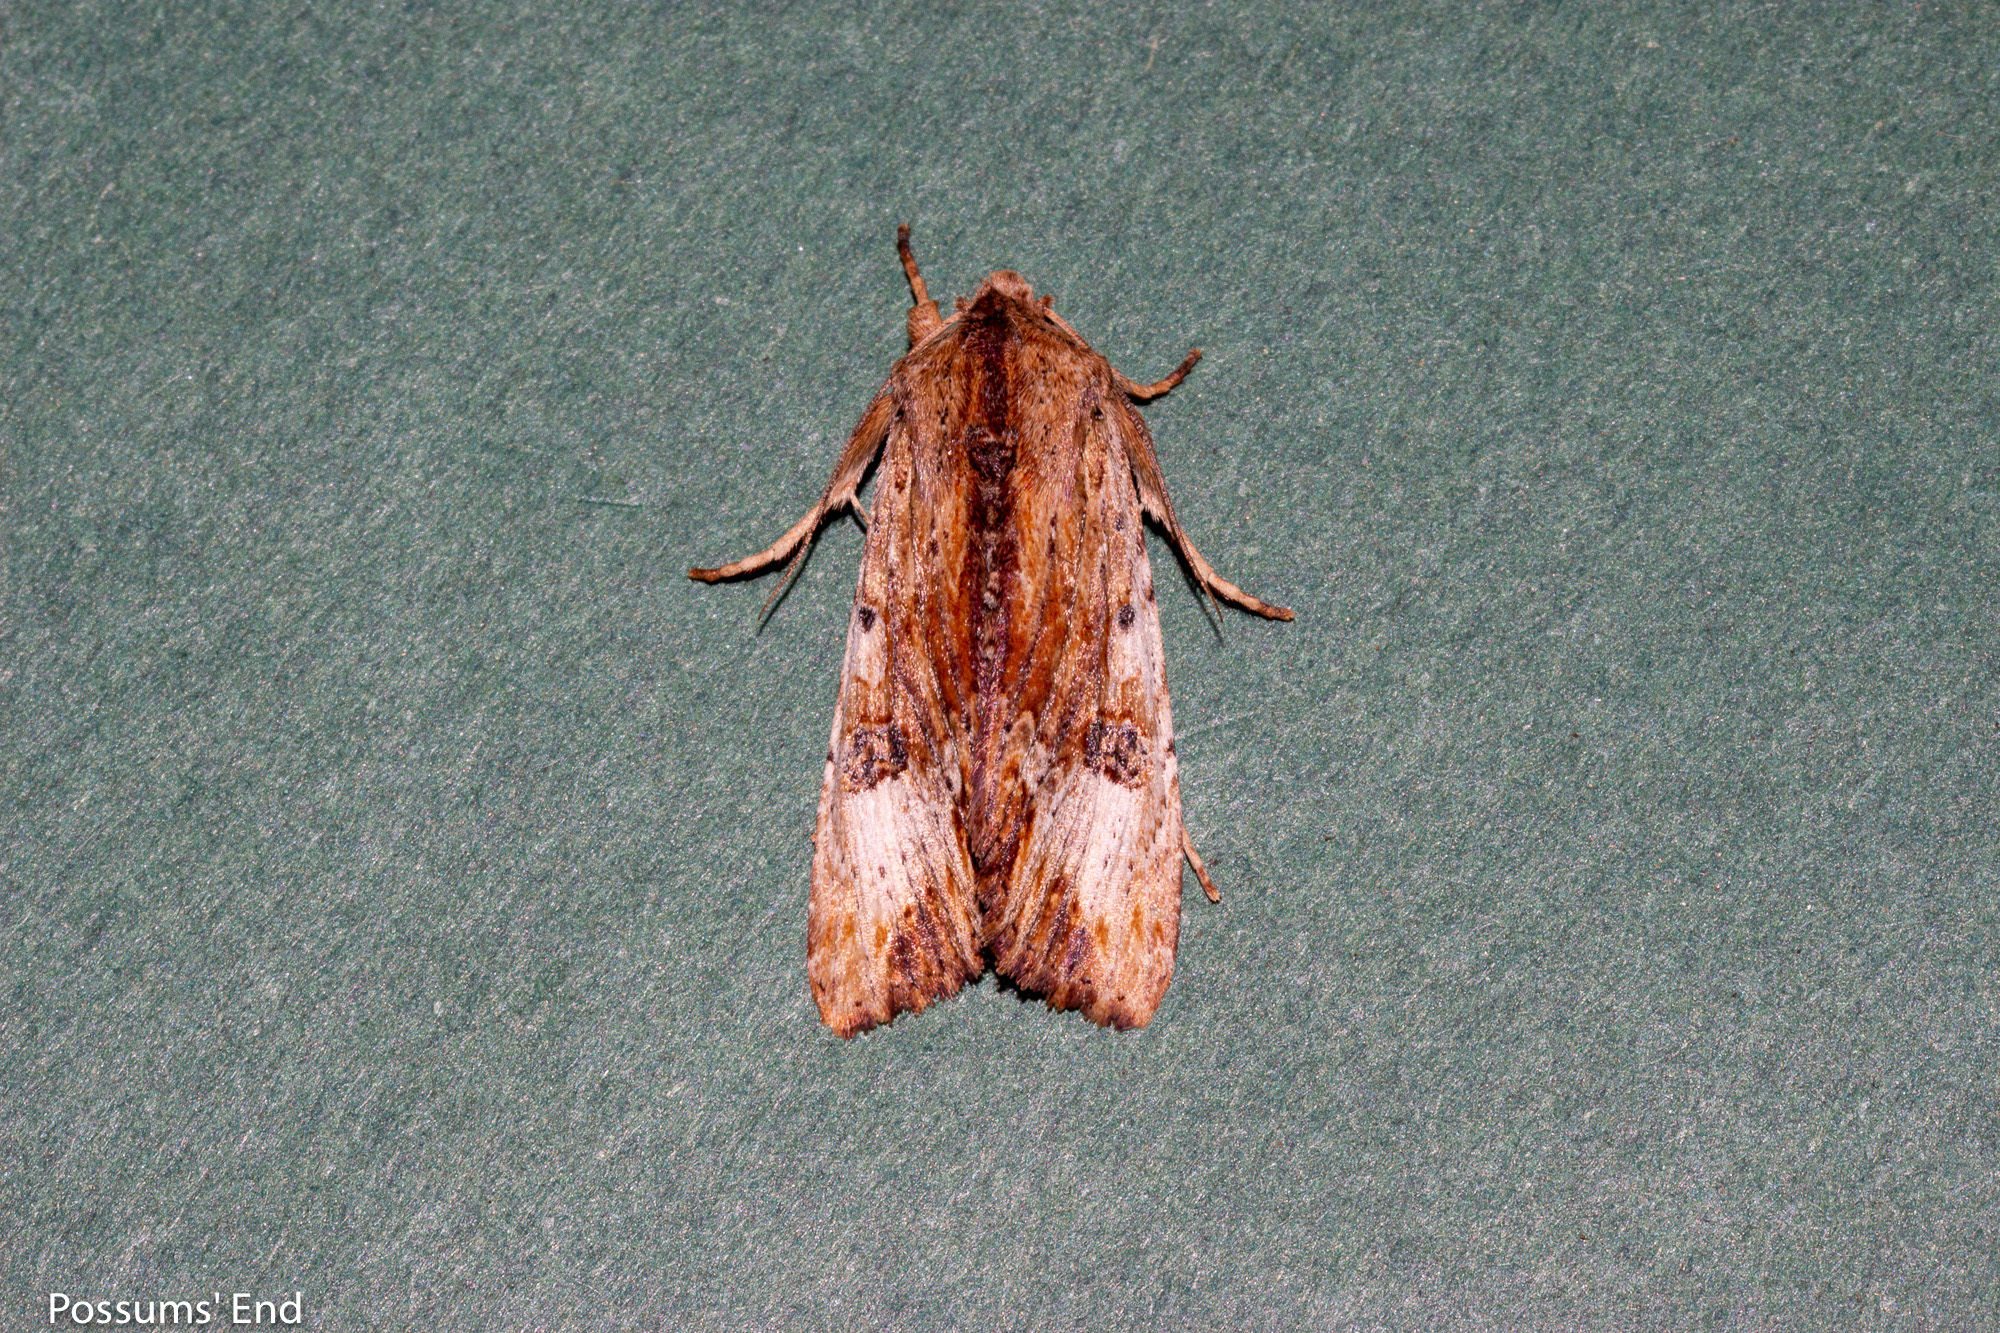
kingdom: Animalia
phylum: Arthropoda
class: Insecta
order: Lepidoptera
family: Noctuidae
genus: Ichneutica
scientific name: Ichneutica
